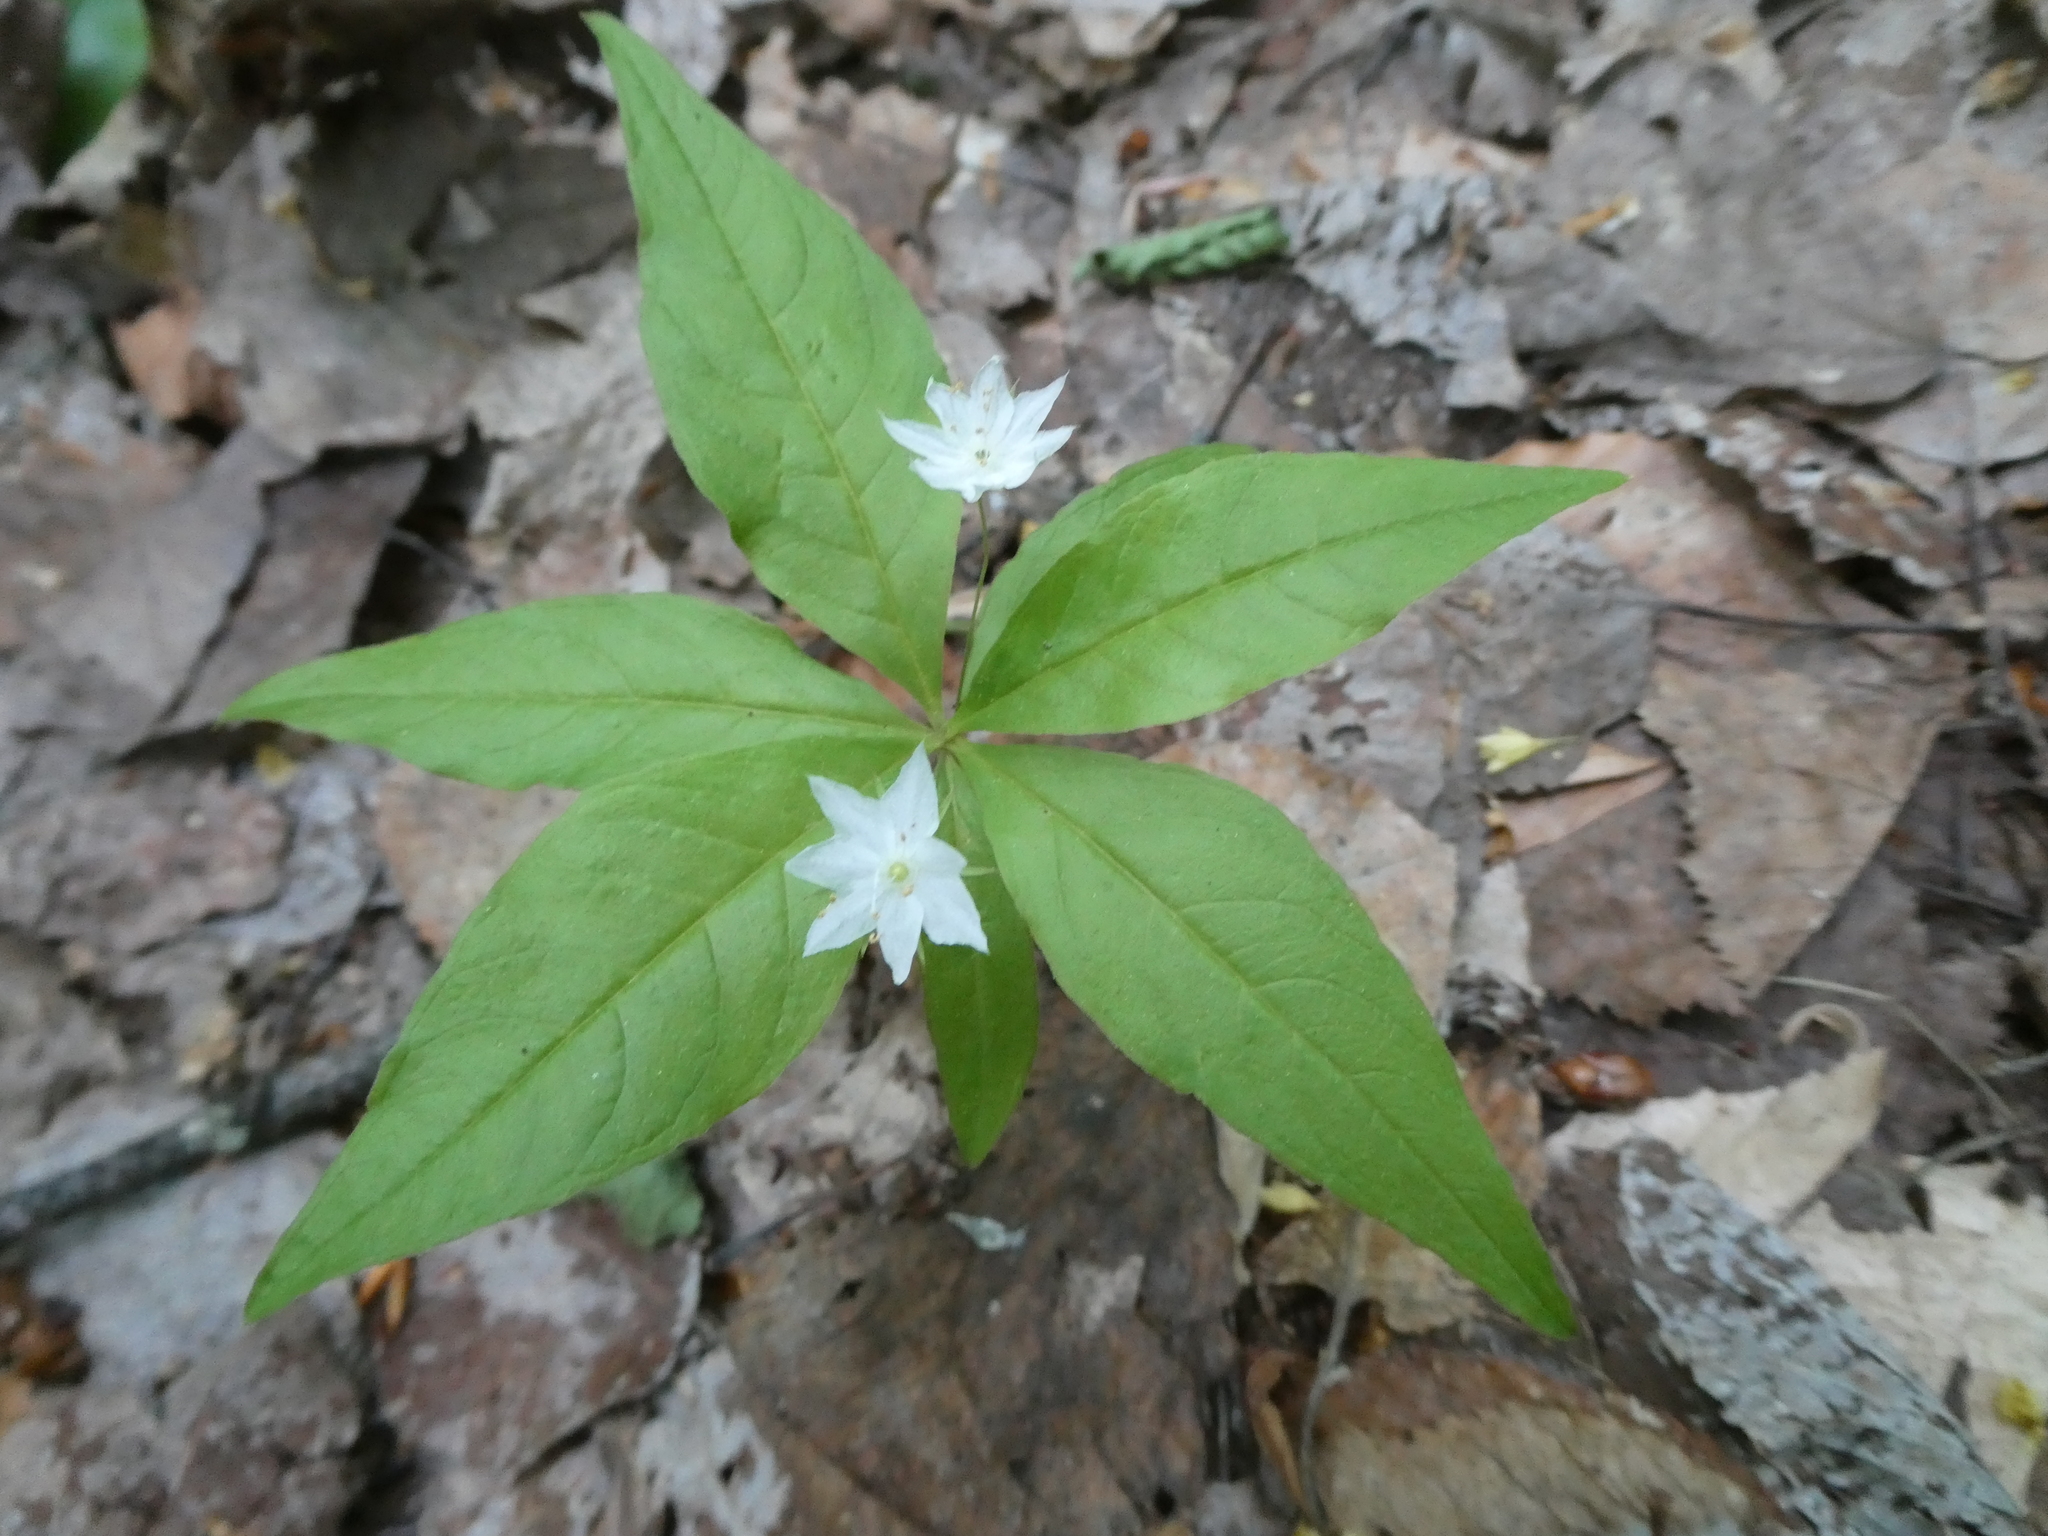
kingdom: Plantae
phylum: Tracheophyta
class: Magnoliopsida
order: Ericales
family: Primulaceae
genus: Lysimachia
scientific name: Lysimachia borealis
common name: American starflower
